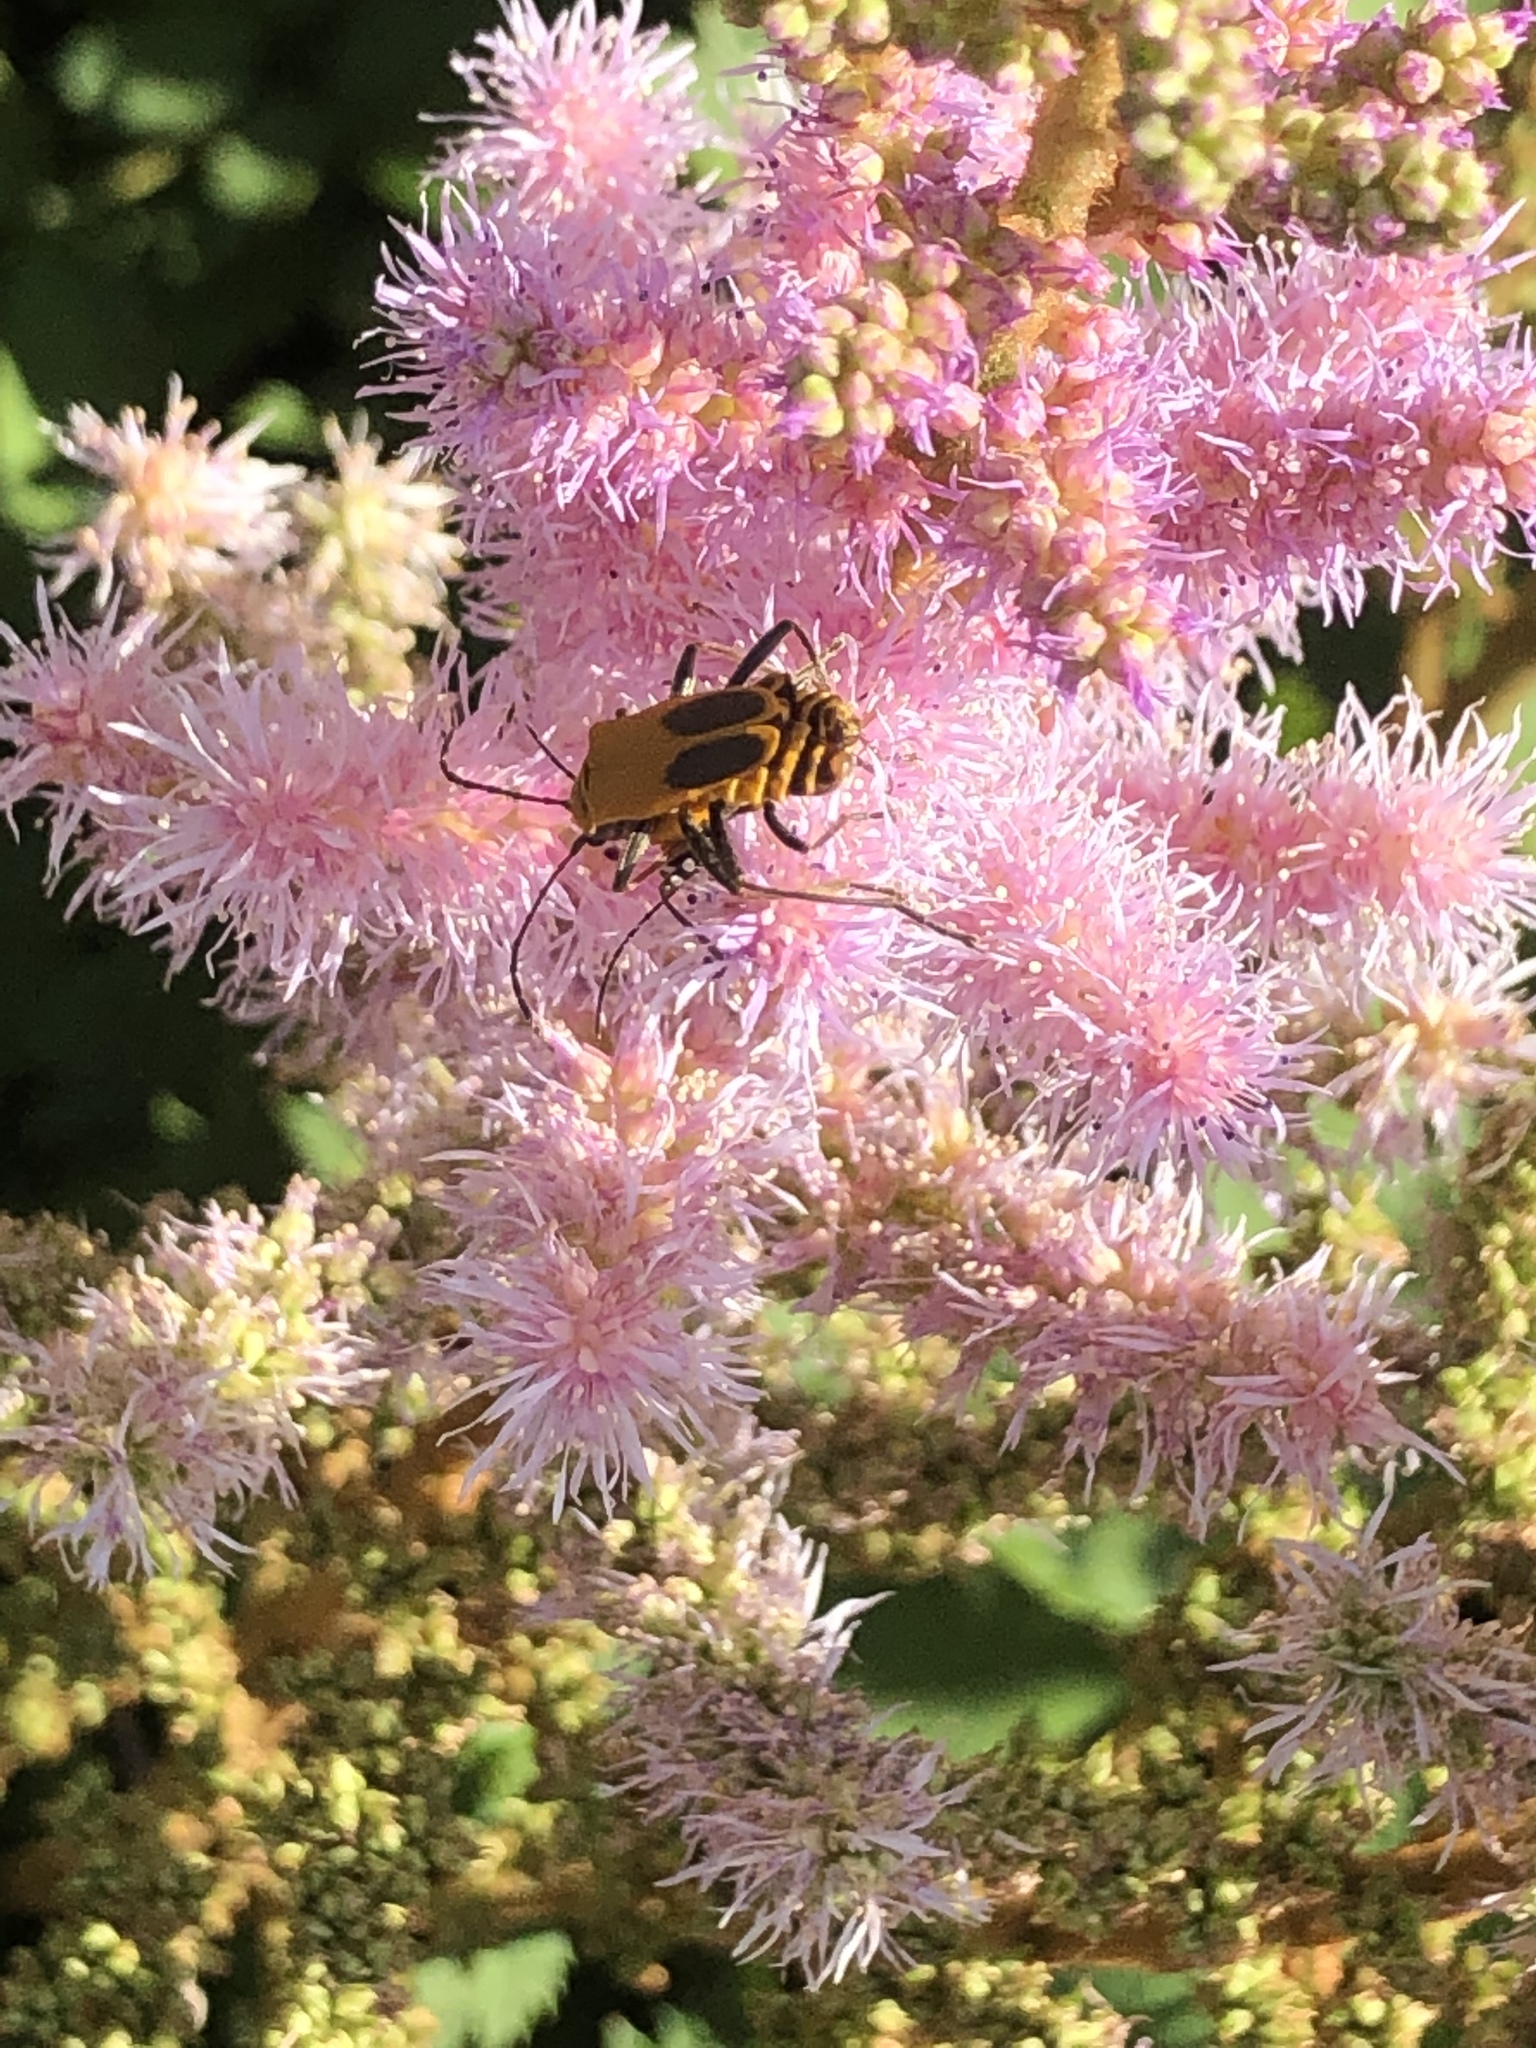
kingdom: Animalia
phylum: Arthropoda
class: Insecta
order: Coleoptera
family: Cantharidae
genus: Chauliognathus
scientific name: Chauliognathus pensylvanicus
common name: Goldenrod soldier beetle
